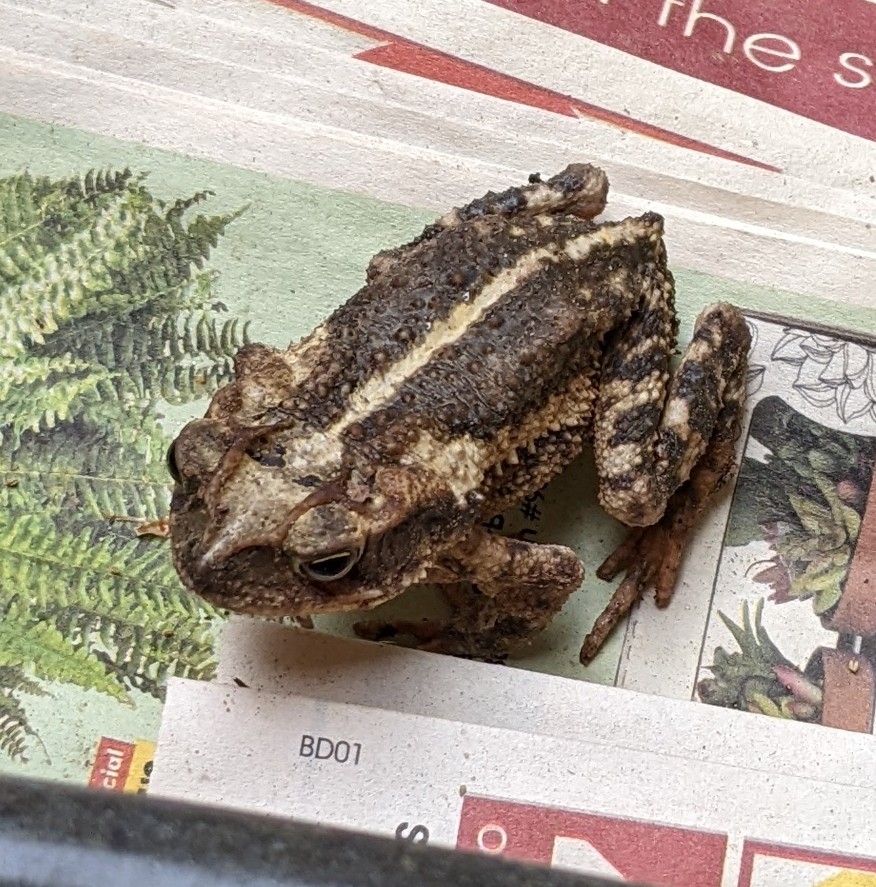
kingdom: Animalia
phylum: Chordata
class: Amphibia
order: Anura
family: Bufonidae
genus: Incilius
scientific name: Incilius nebulifer
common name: Gulf coast toad
